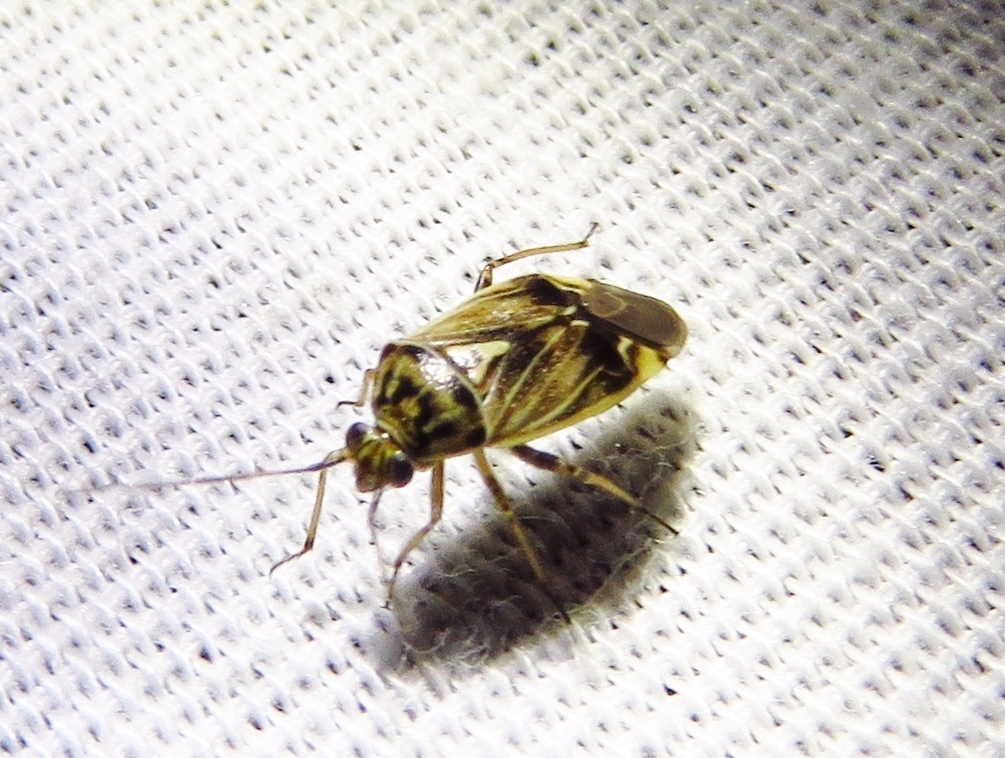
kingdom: Animalia
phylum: Arthropoda
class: Insecta
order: Hemiptera
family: Miridae
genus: Lygus
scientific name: Lygus lineolaris
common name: North american tarnished plant bug
